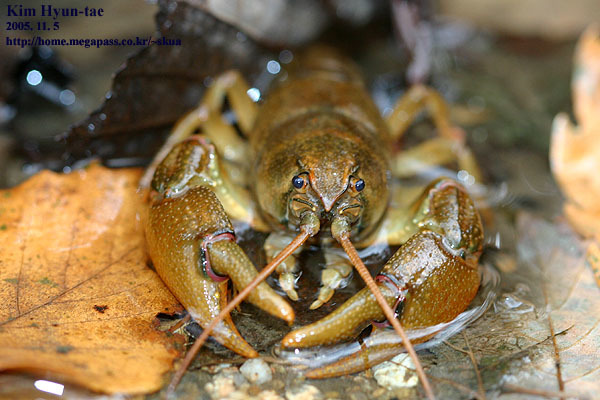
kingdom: Animalia
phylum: Arthropoda
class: Malacostraca
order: Decapoda
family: Cambaroididae
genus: Cambaroides
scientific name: Cambaroides similis
